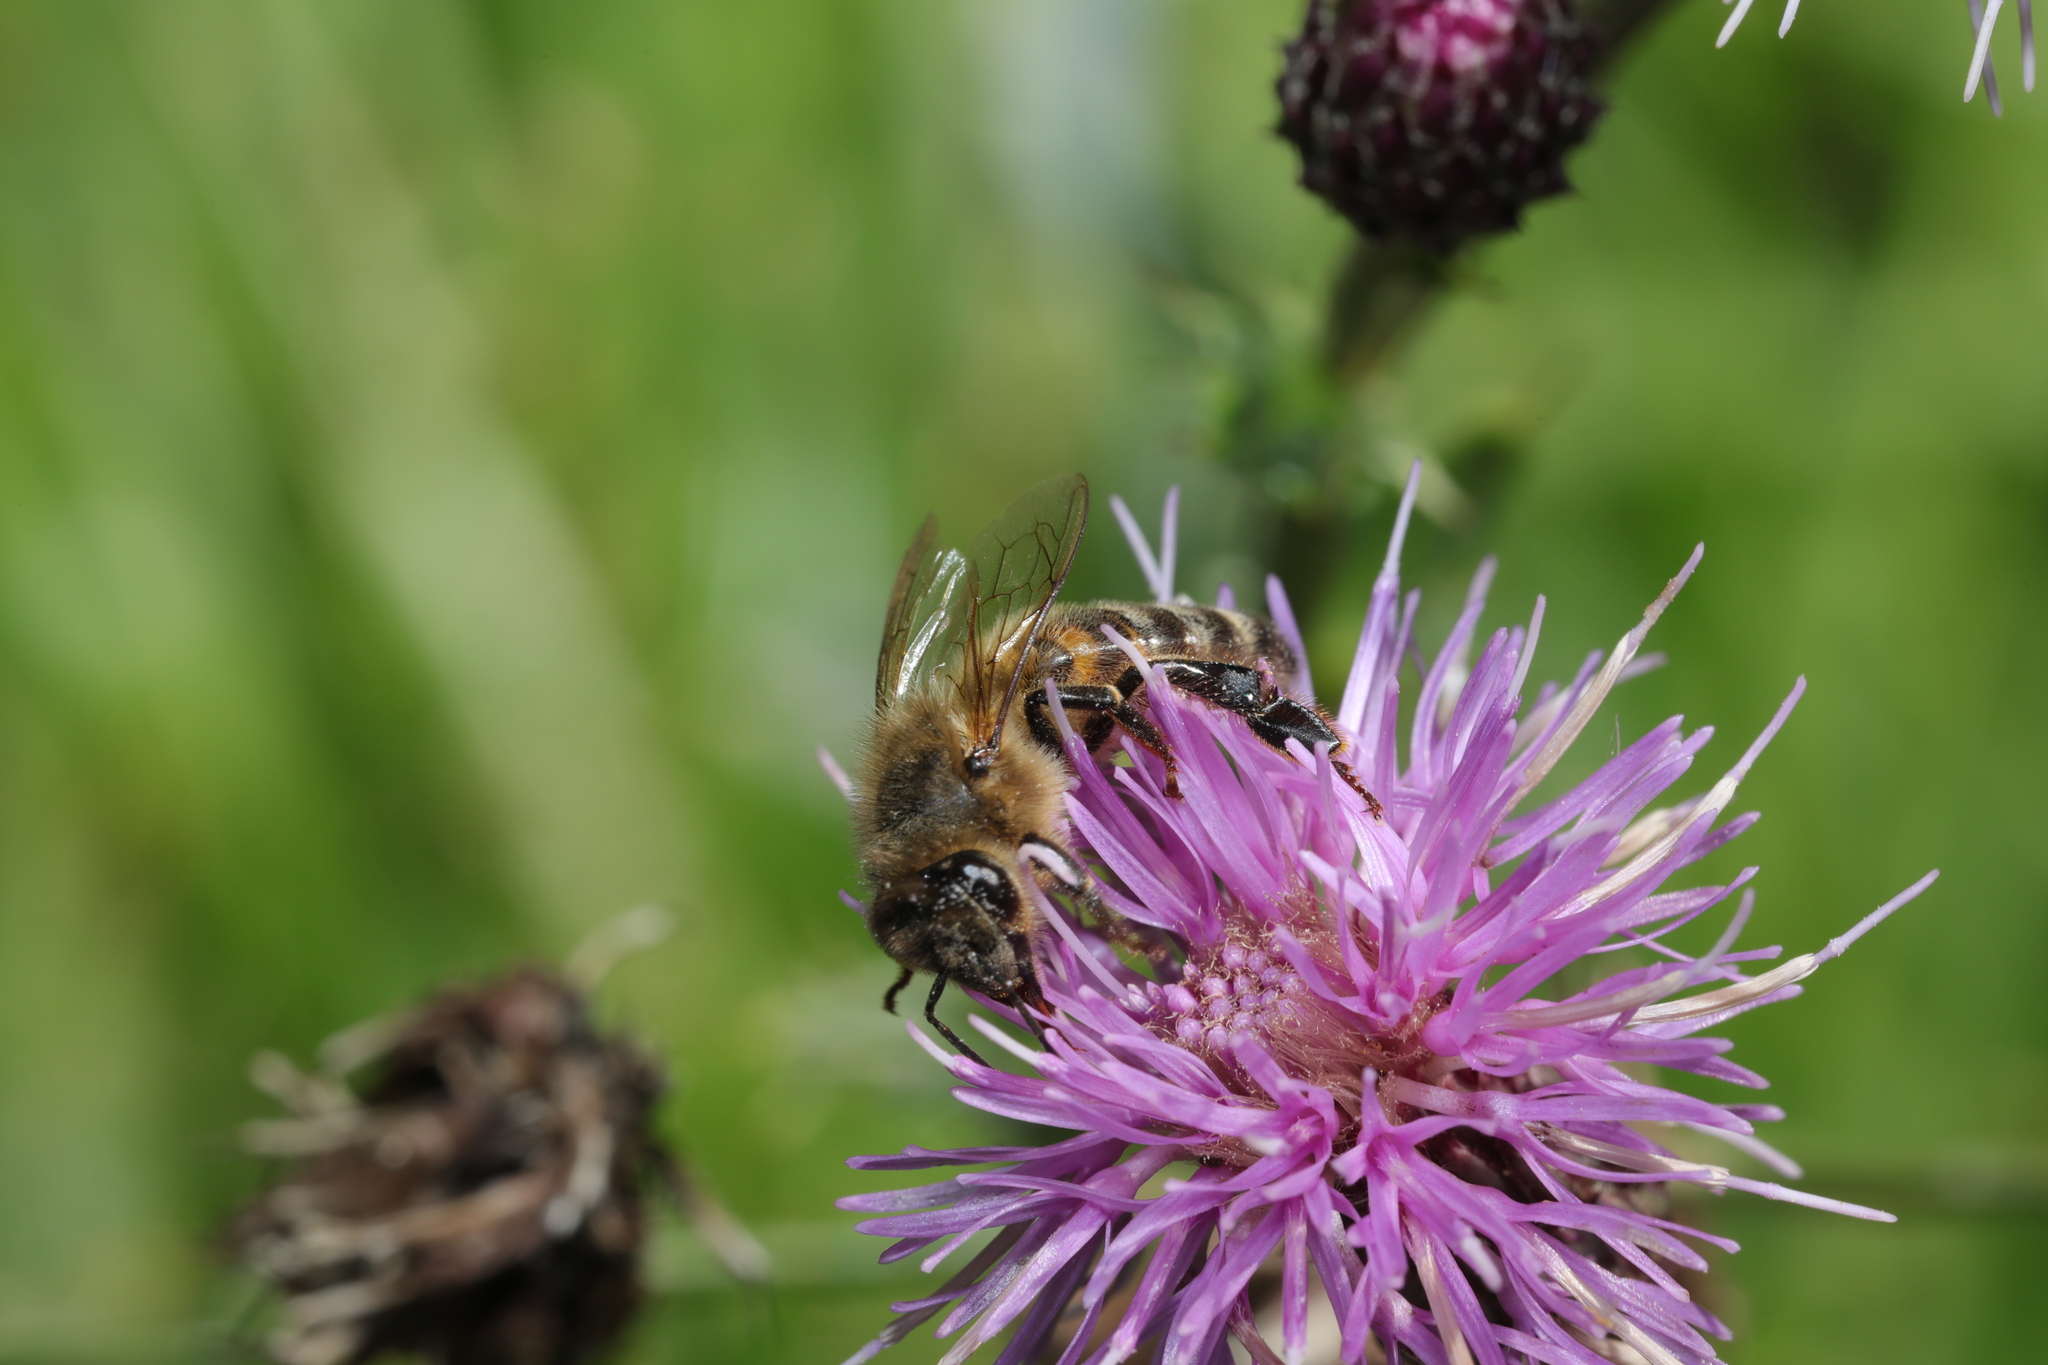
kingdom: Animalia
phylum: Arthropoda
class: Insecta
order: Hymenoptera
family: Apidae
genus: Apis
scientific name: Apis mellifera
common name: Honey bee
